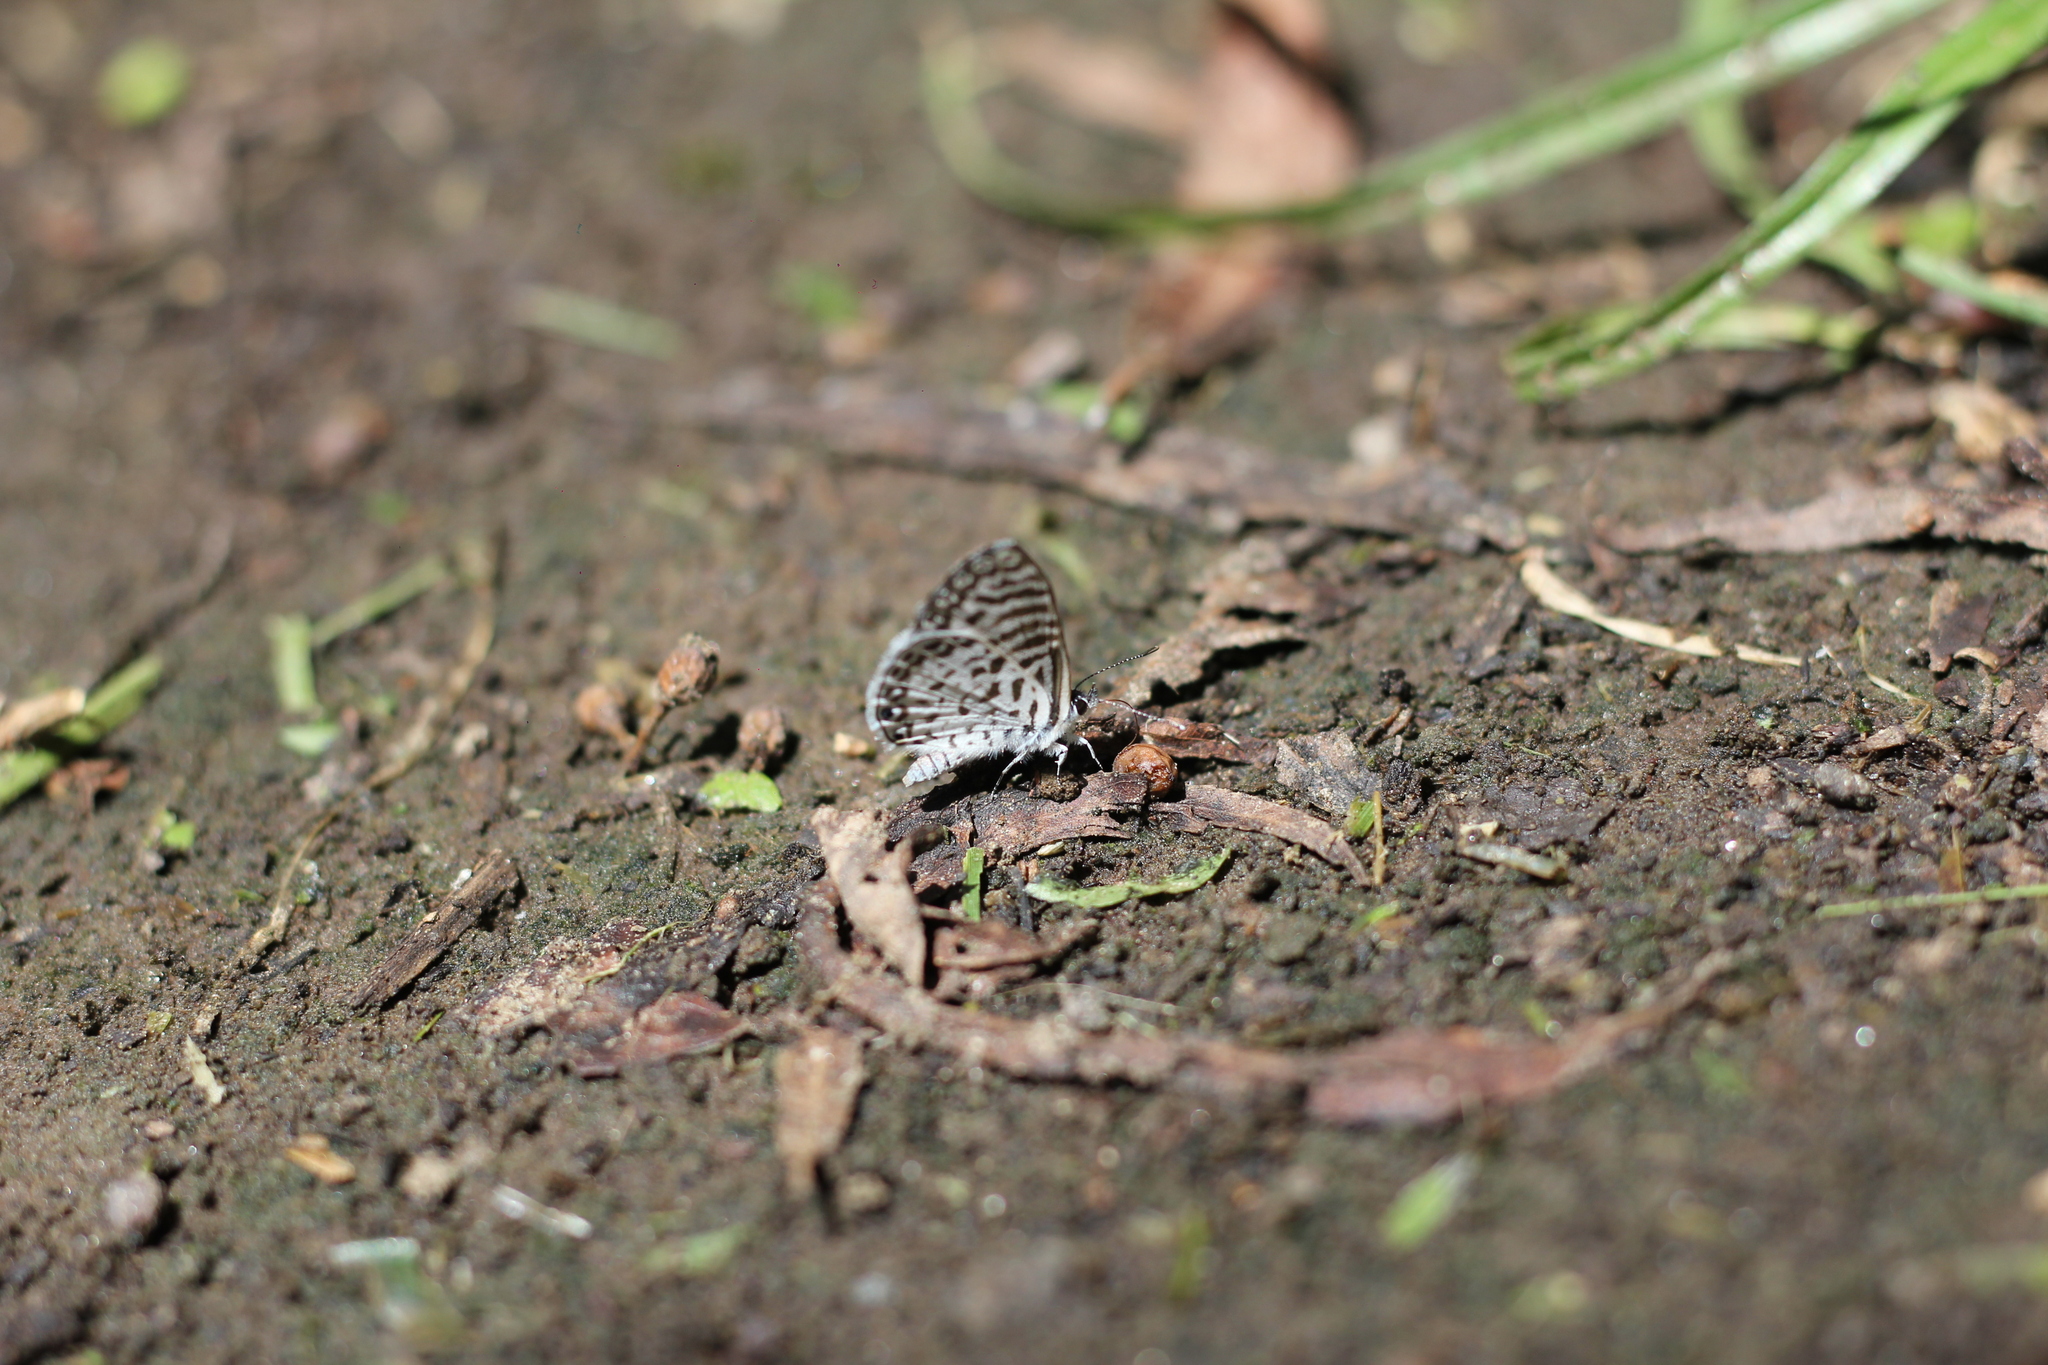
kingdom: Animalia
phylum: Arthropoda
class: Insecta
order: Lepidoptera
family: Lycaenidae
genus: Leptotes
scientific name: Leptotes cassius
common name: Cassius blue
